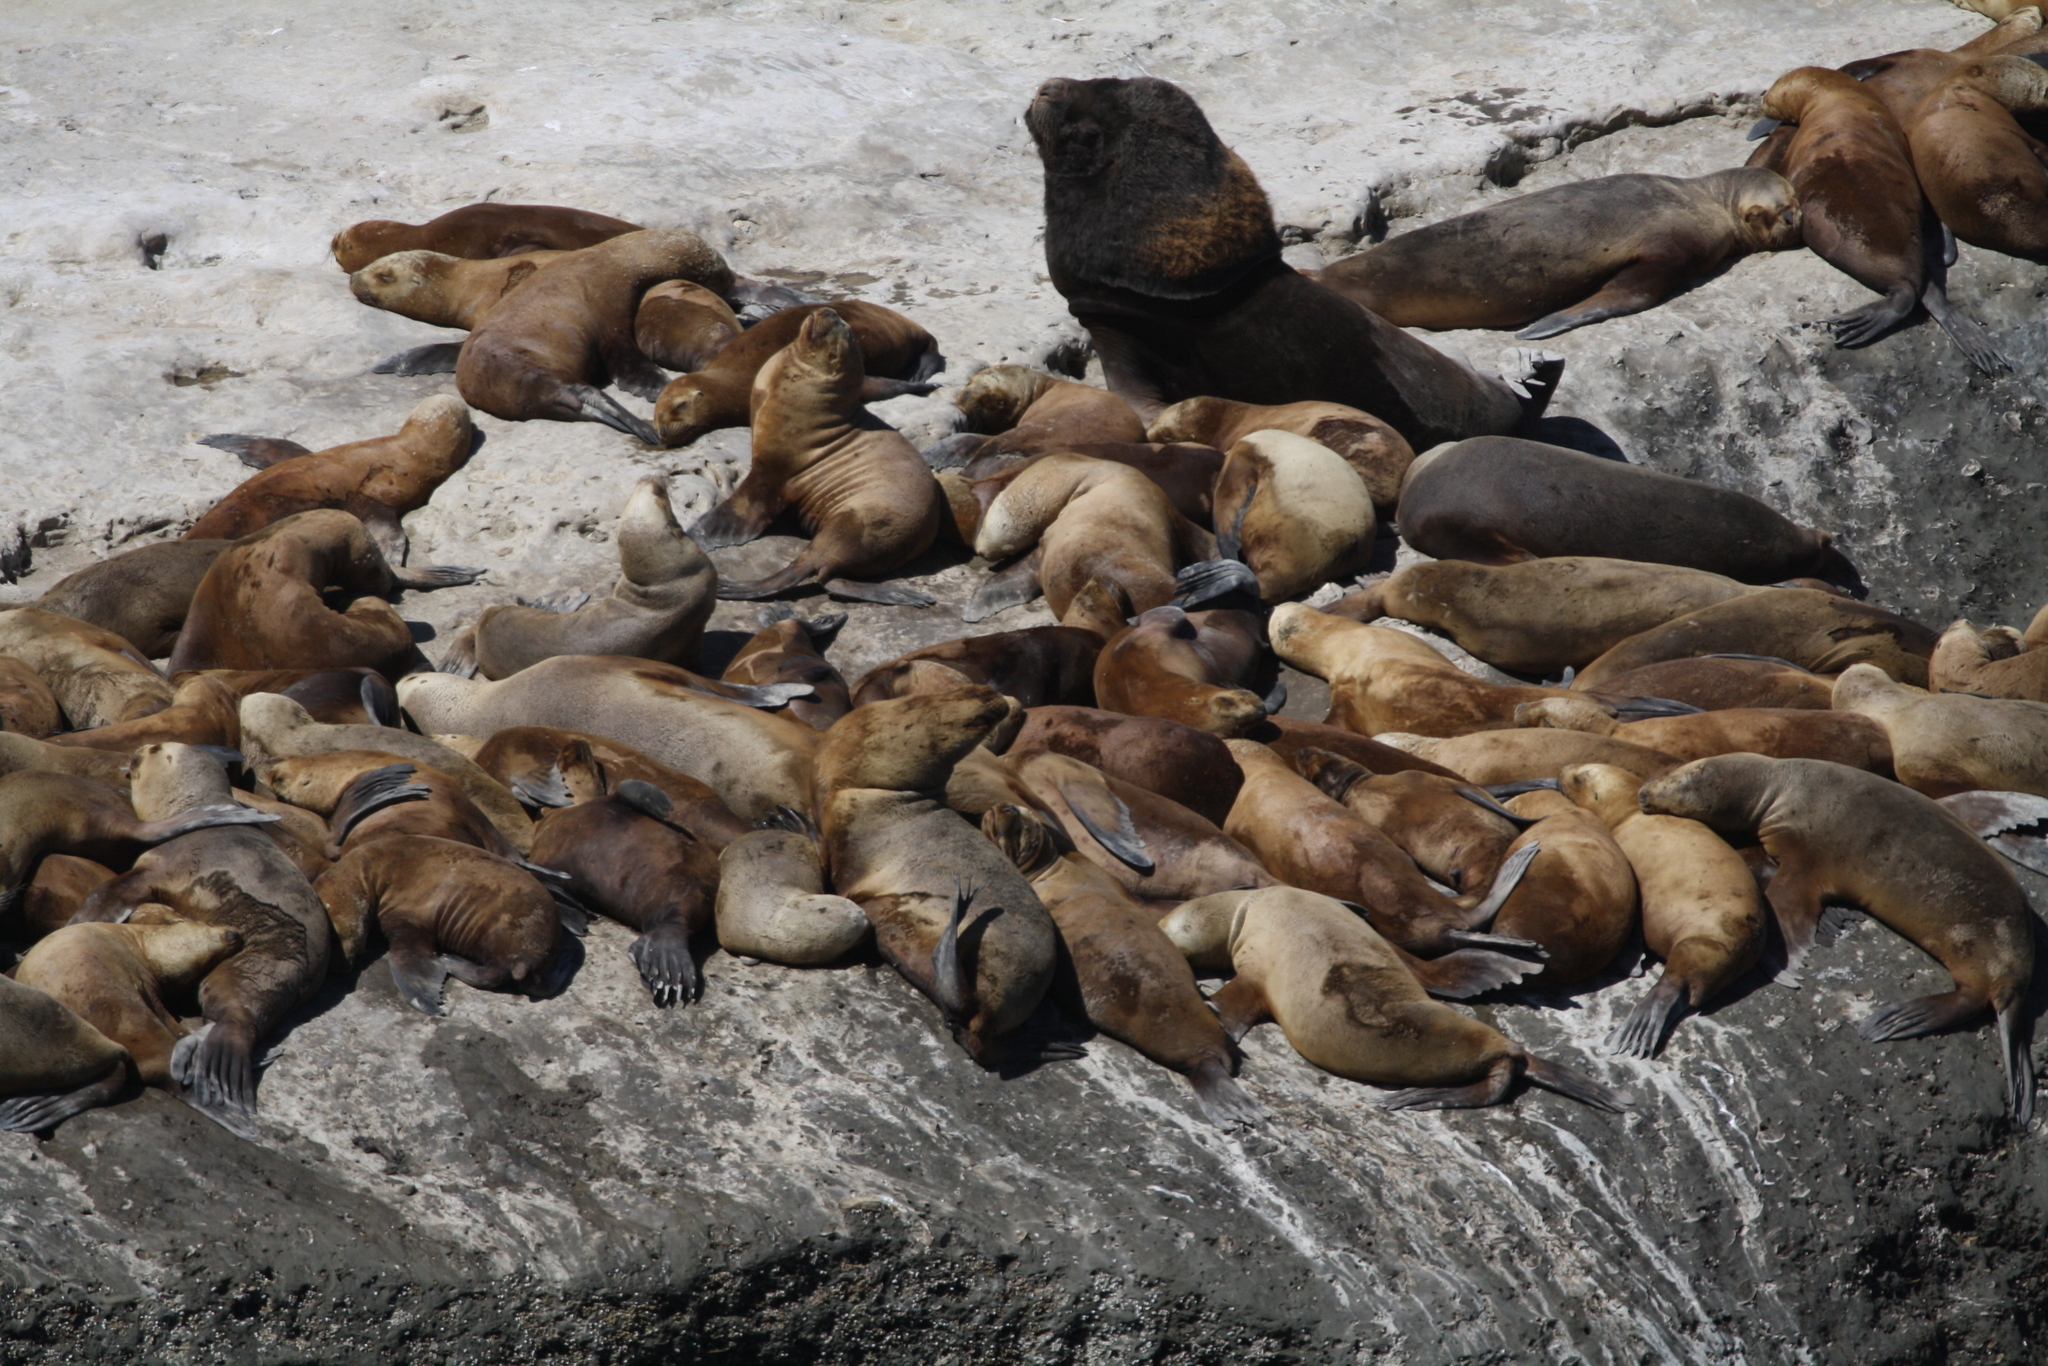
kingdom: Animalia
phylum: Chordata
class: Mammalia
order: Carnivora
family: Otariidae
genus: Otaria
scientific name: Otaria byronia
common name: South american sea lion
